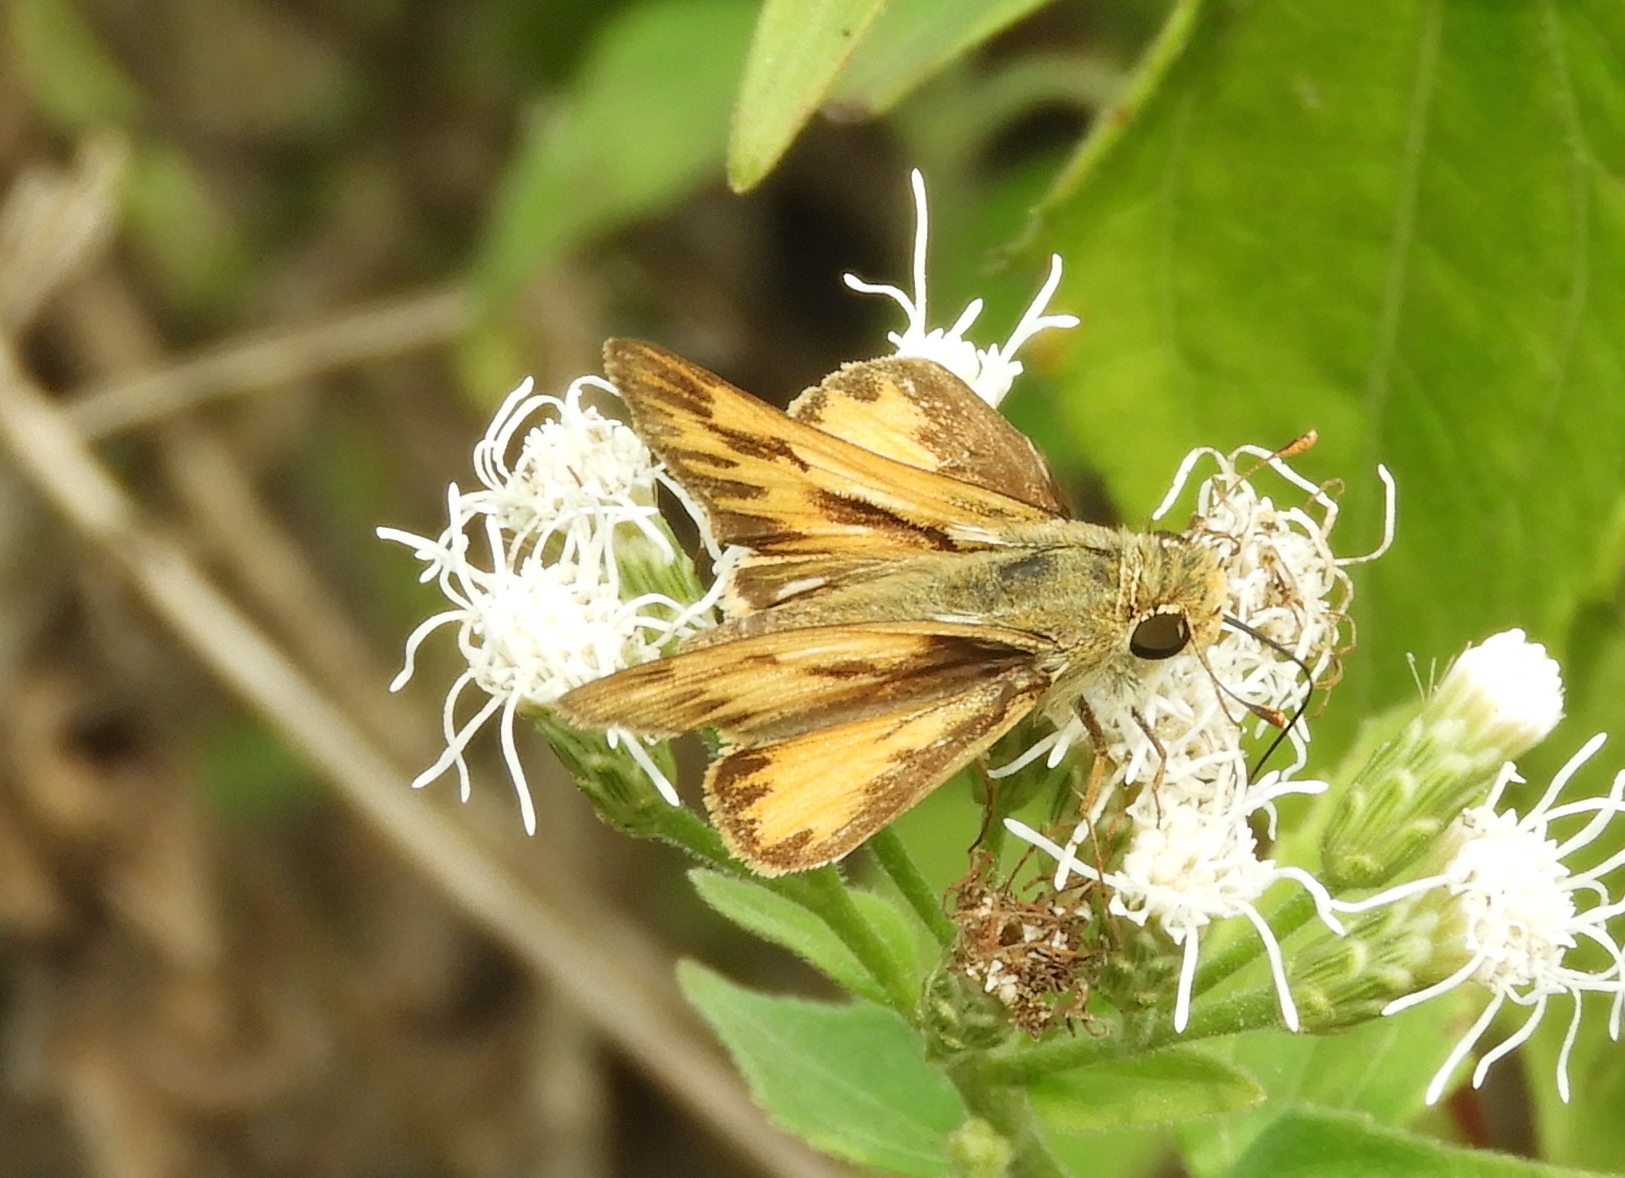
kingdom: Animalia
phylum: Arthropoda
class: Insecta
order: Lepidoptera
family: Hesperiidae
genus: Hylephila
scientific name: Hylephila phyleus
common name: Fiery skipper
